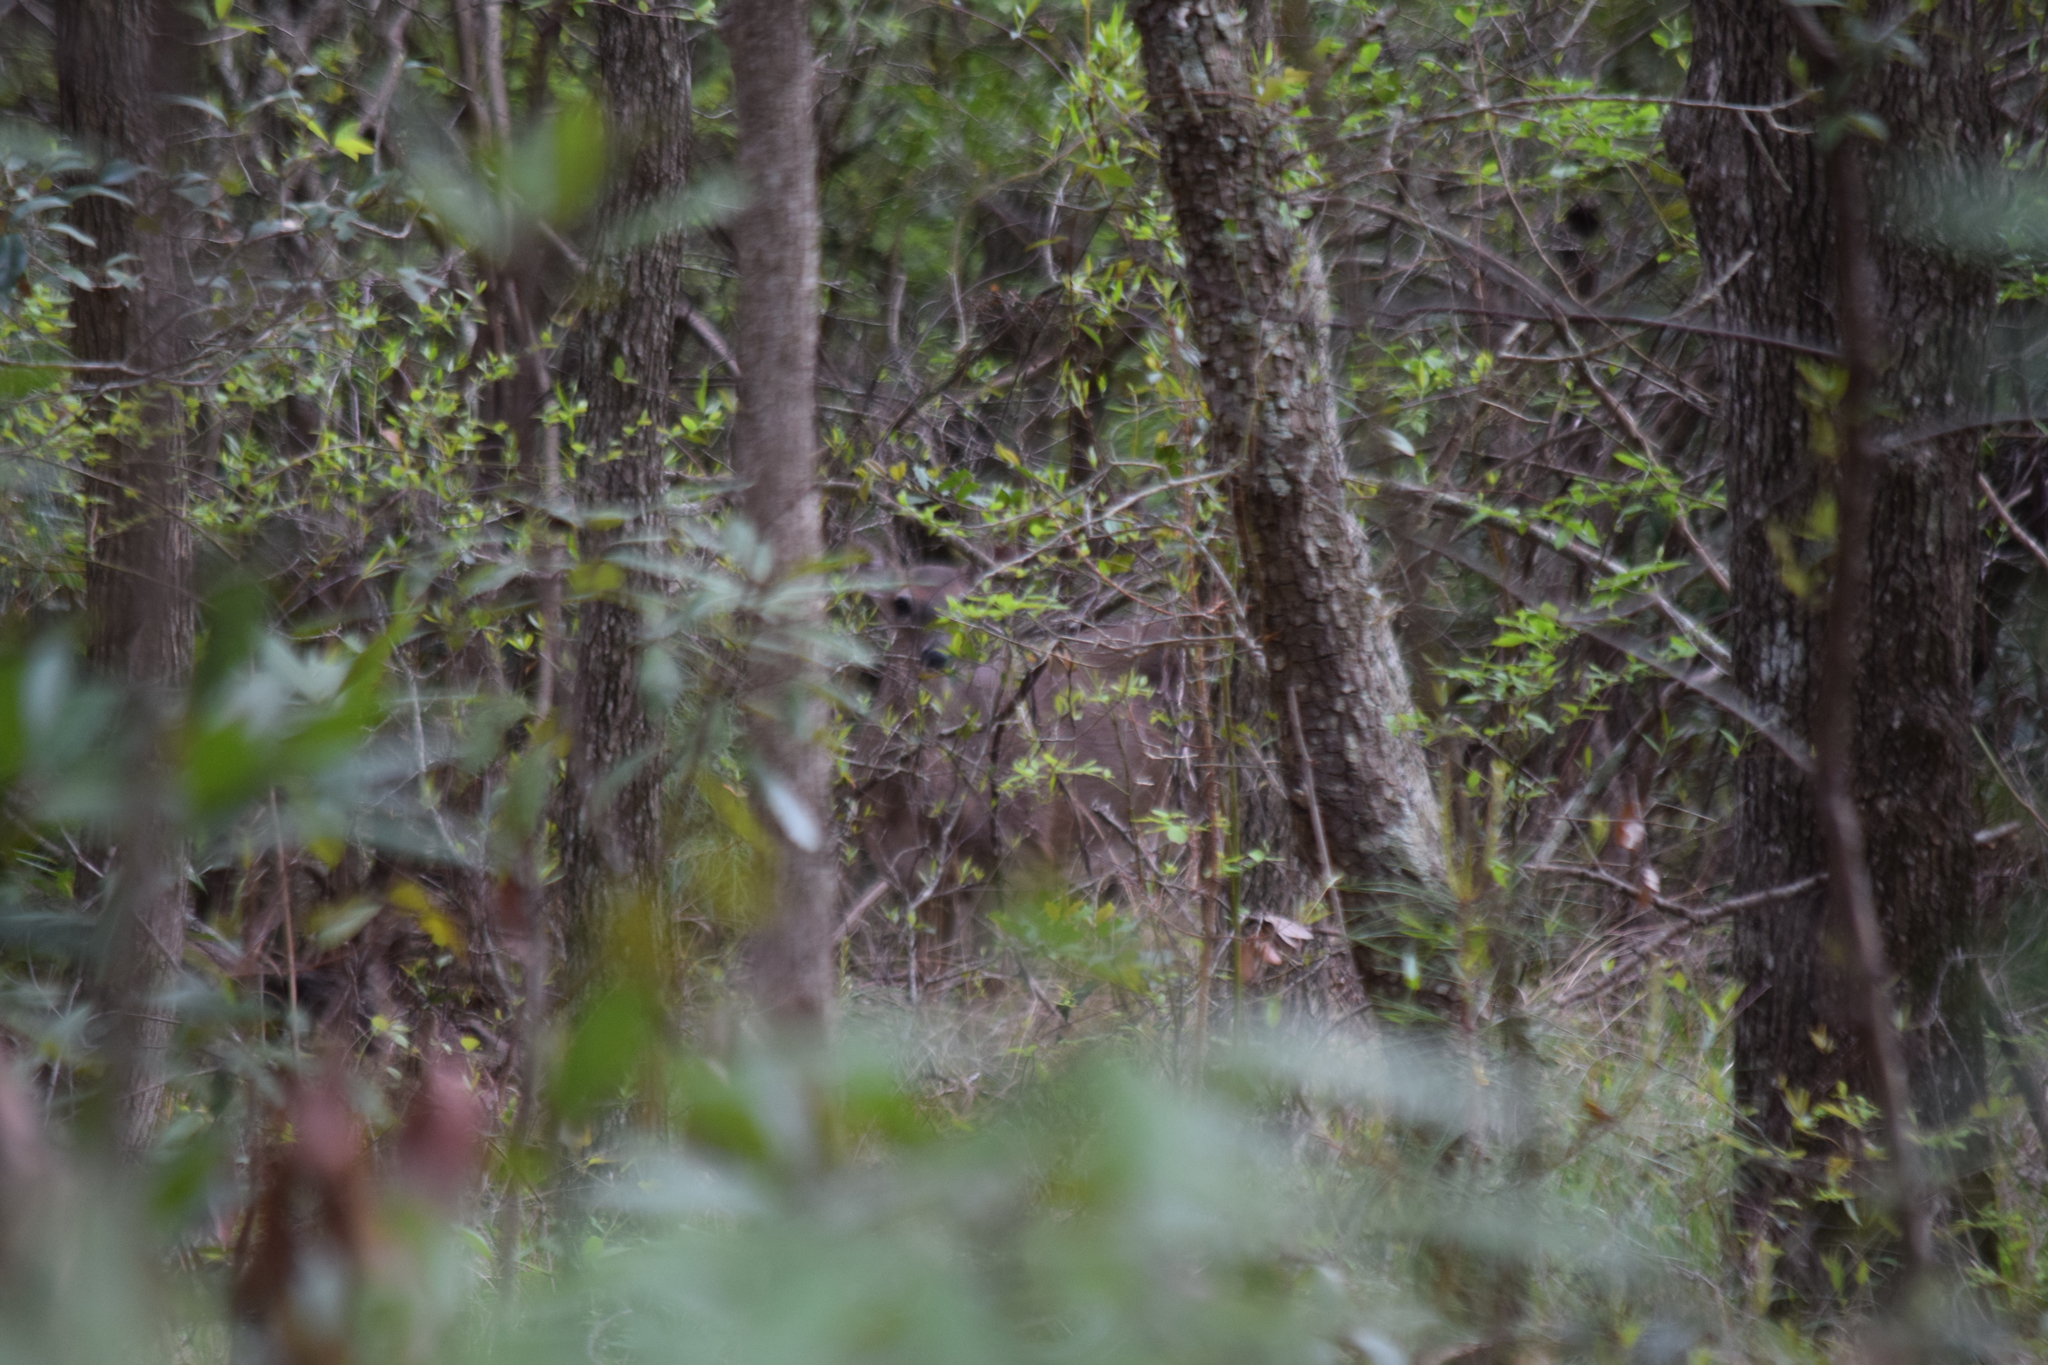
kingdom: Animalia
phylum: Chordata
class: Mammalia
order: Artiodactyla
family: Cervidae
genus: Odocoileus
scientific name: Odocoileus virginianus
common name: White-tailed deer
